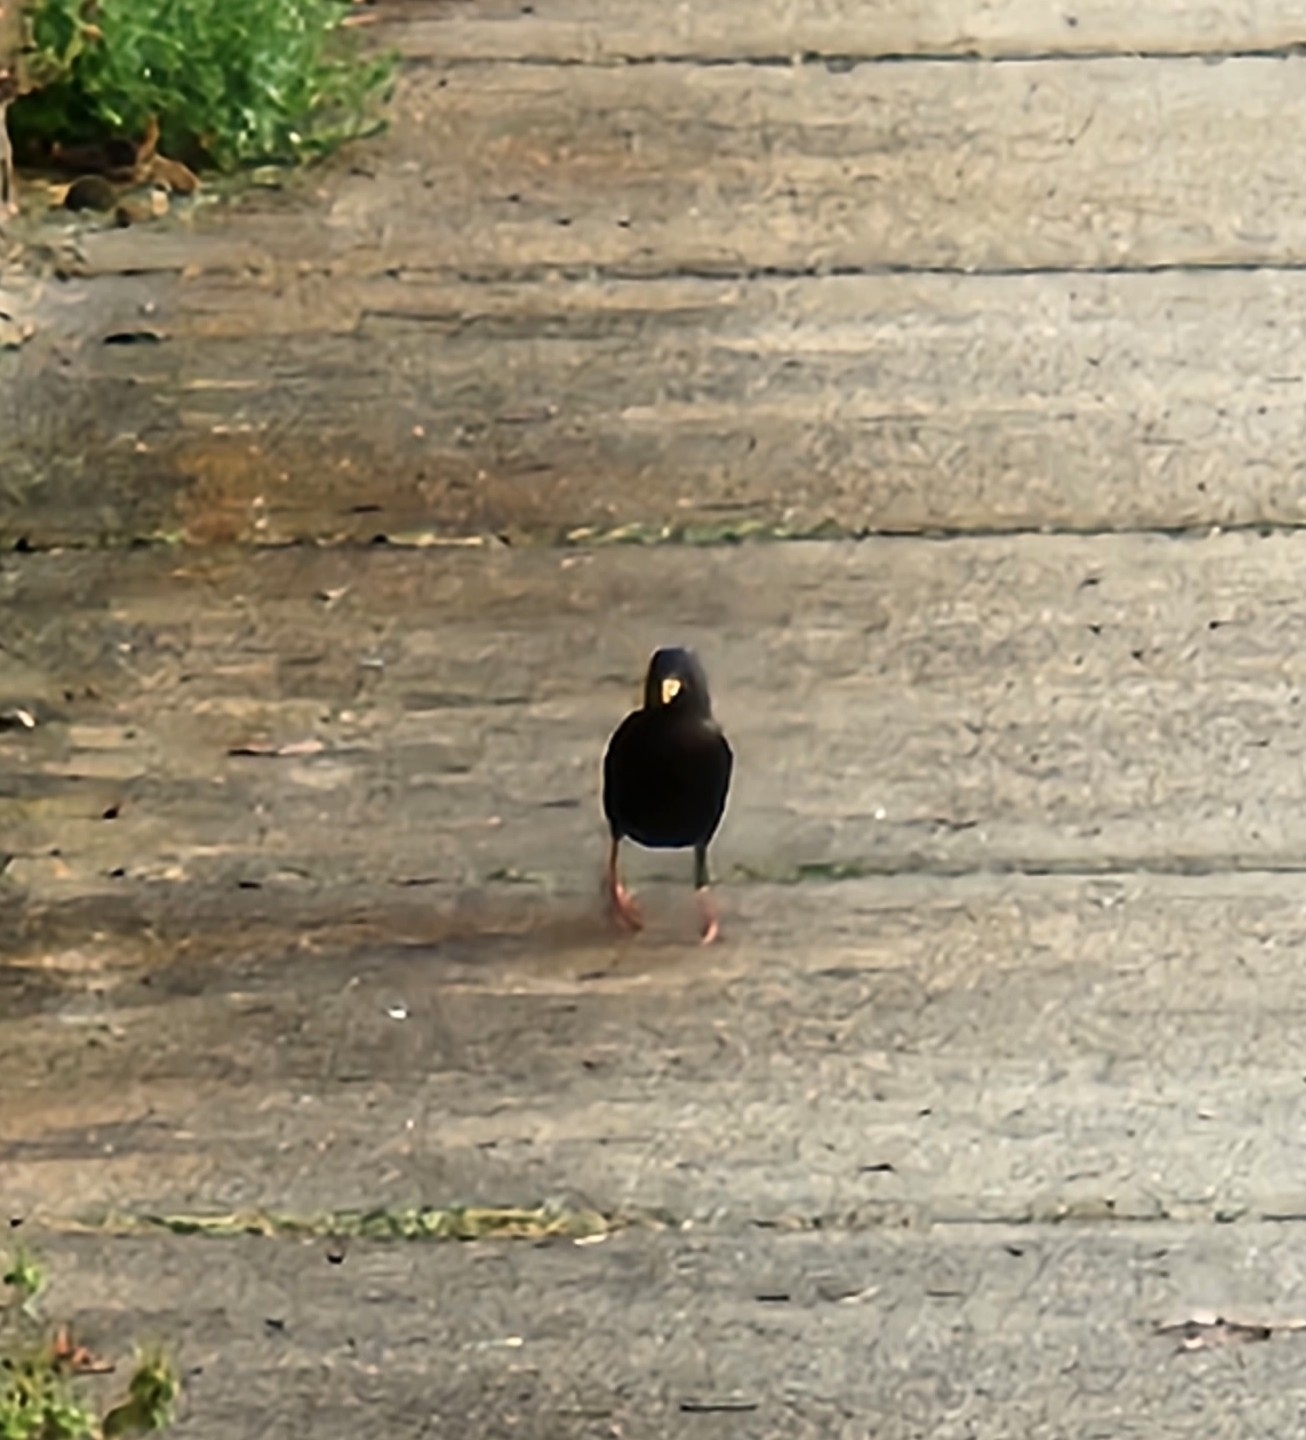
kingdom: Animalia
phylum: Chordata
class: Aves
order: Passeriformes
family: Sturnidae
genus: Sturnus
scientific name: Sturnus vulgaris
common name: Common starling
